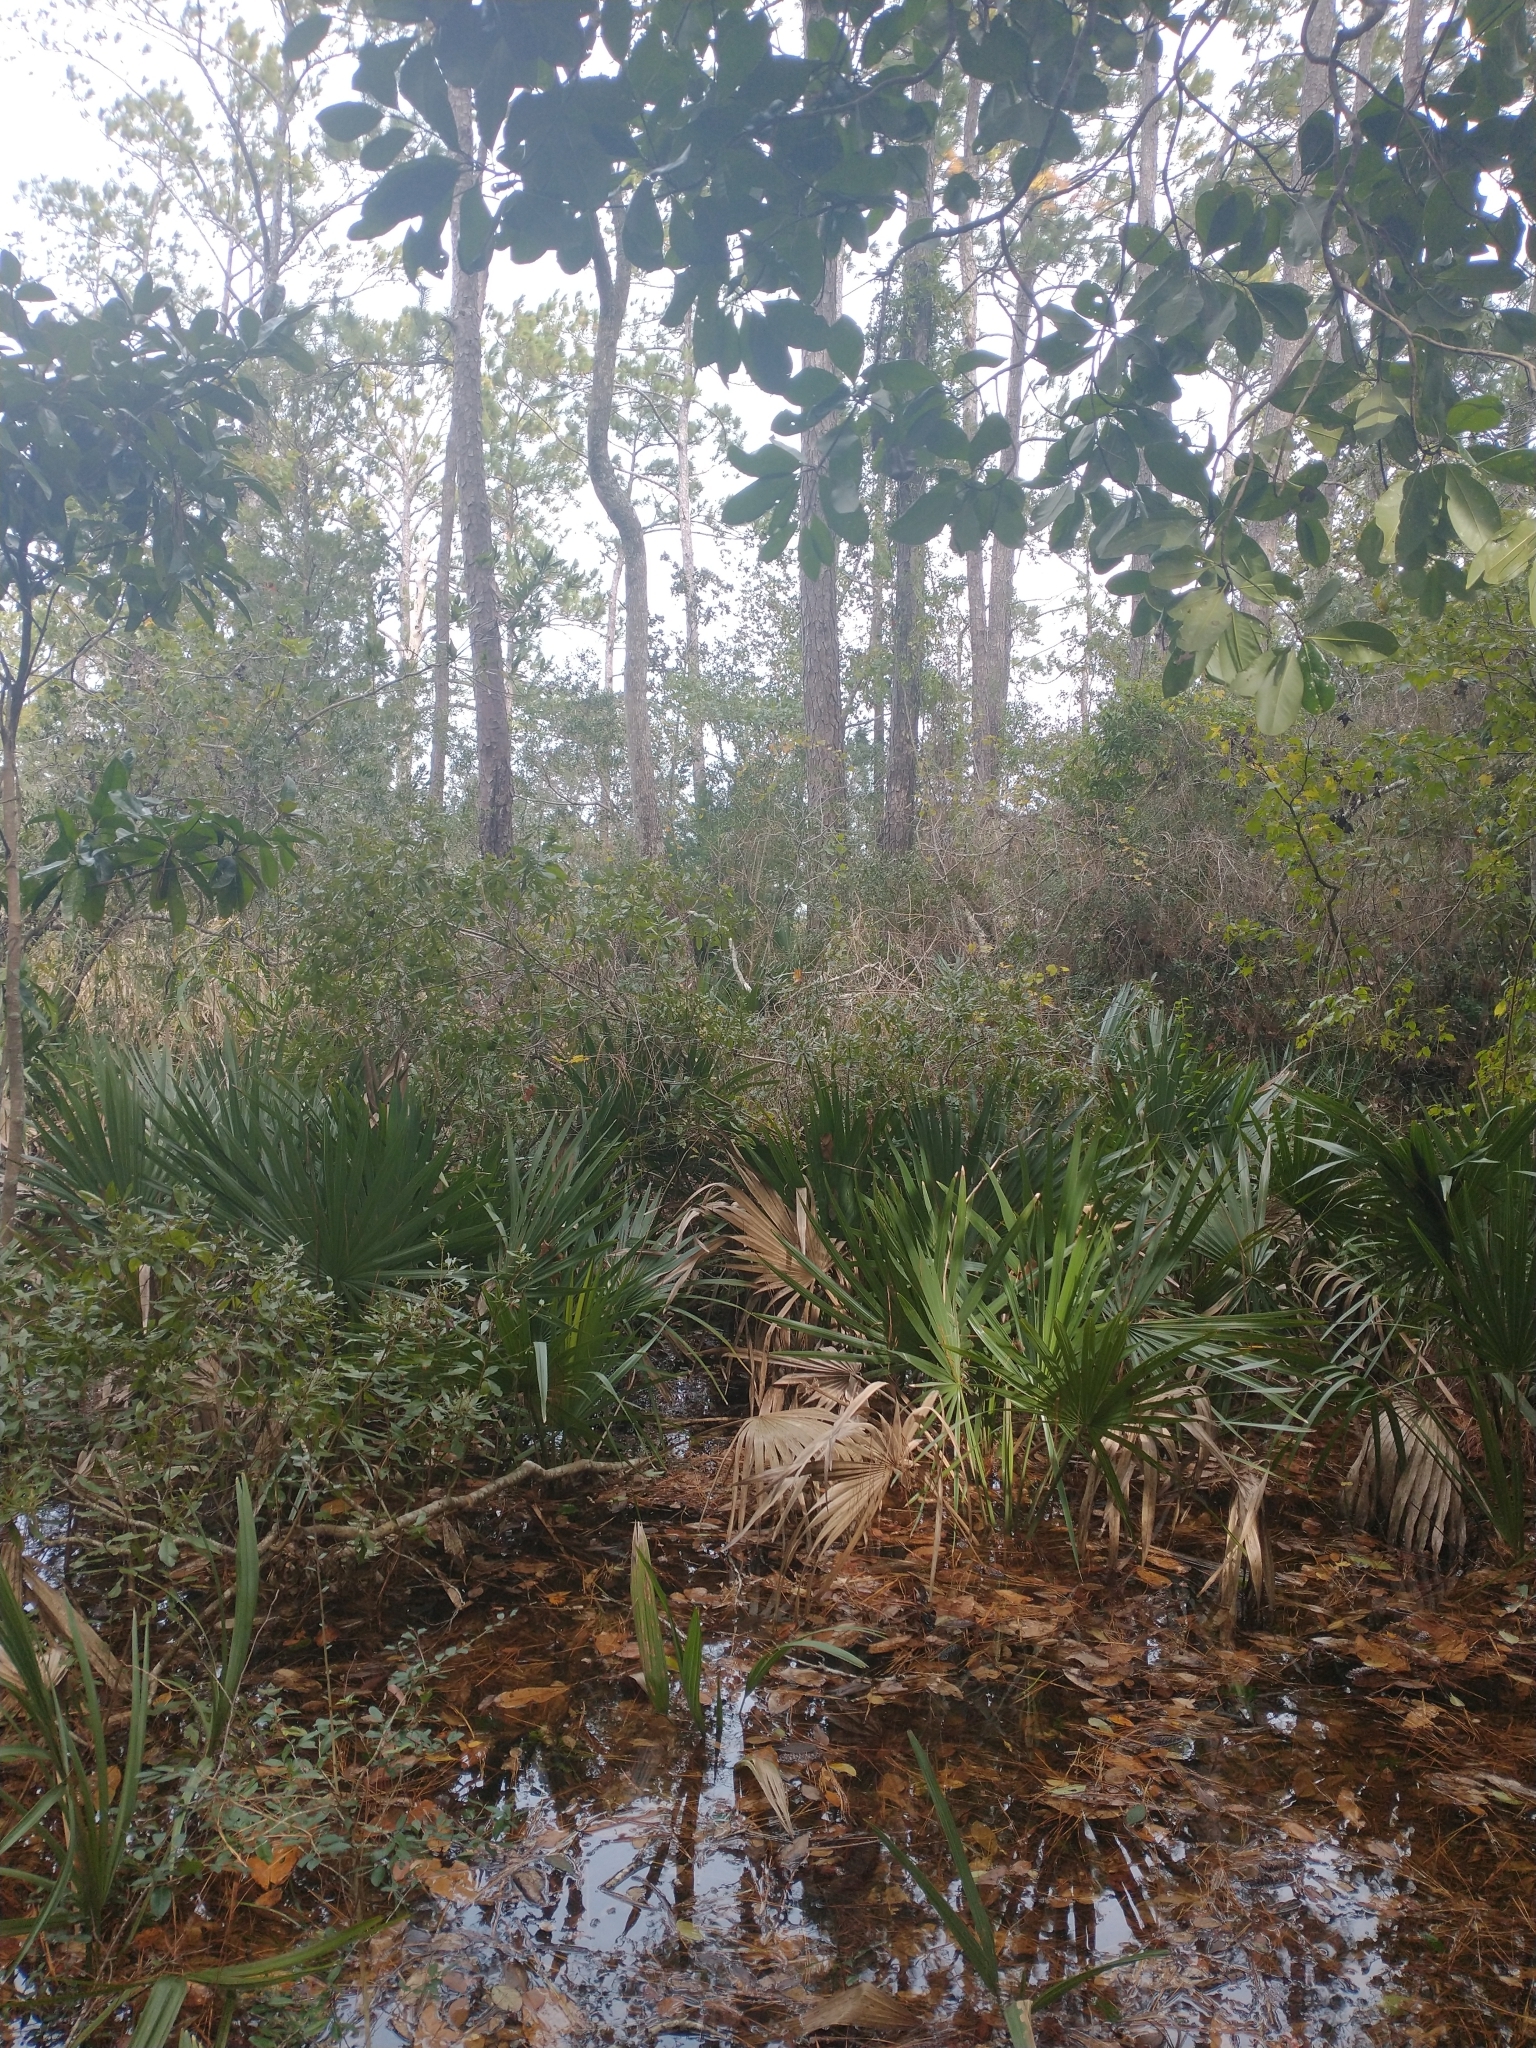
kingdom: Plantae
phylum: Tracheophyta
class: Liliopsida
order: Arecales
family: Arecaceae
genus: Sabal
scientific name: Sabal minor
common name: Dwarf palmetto
